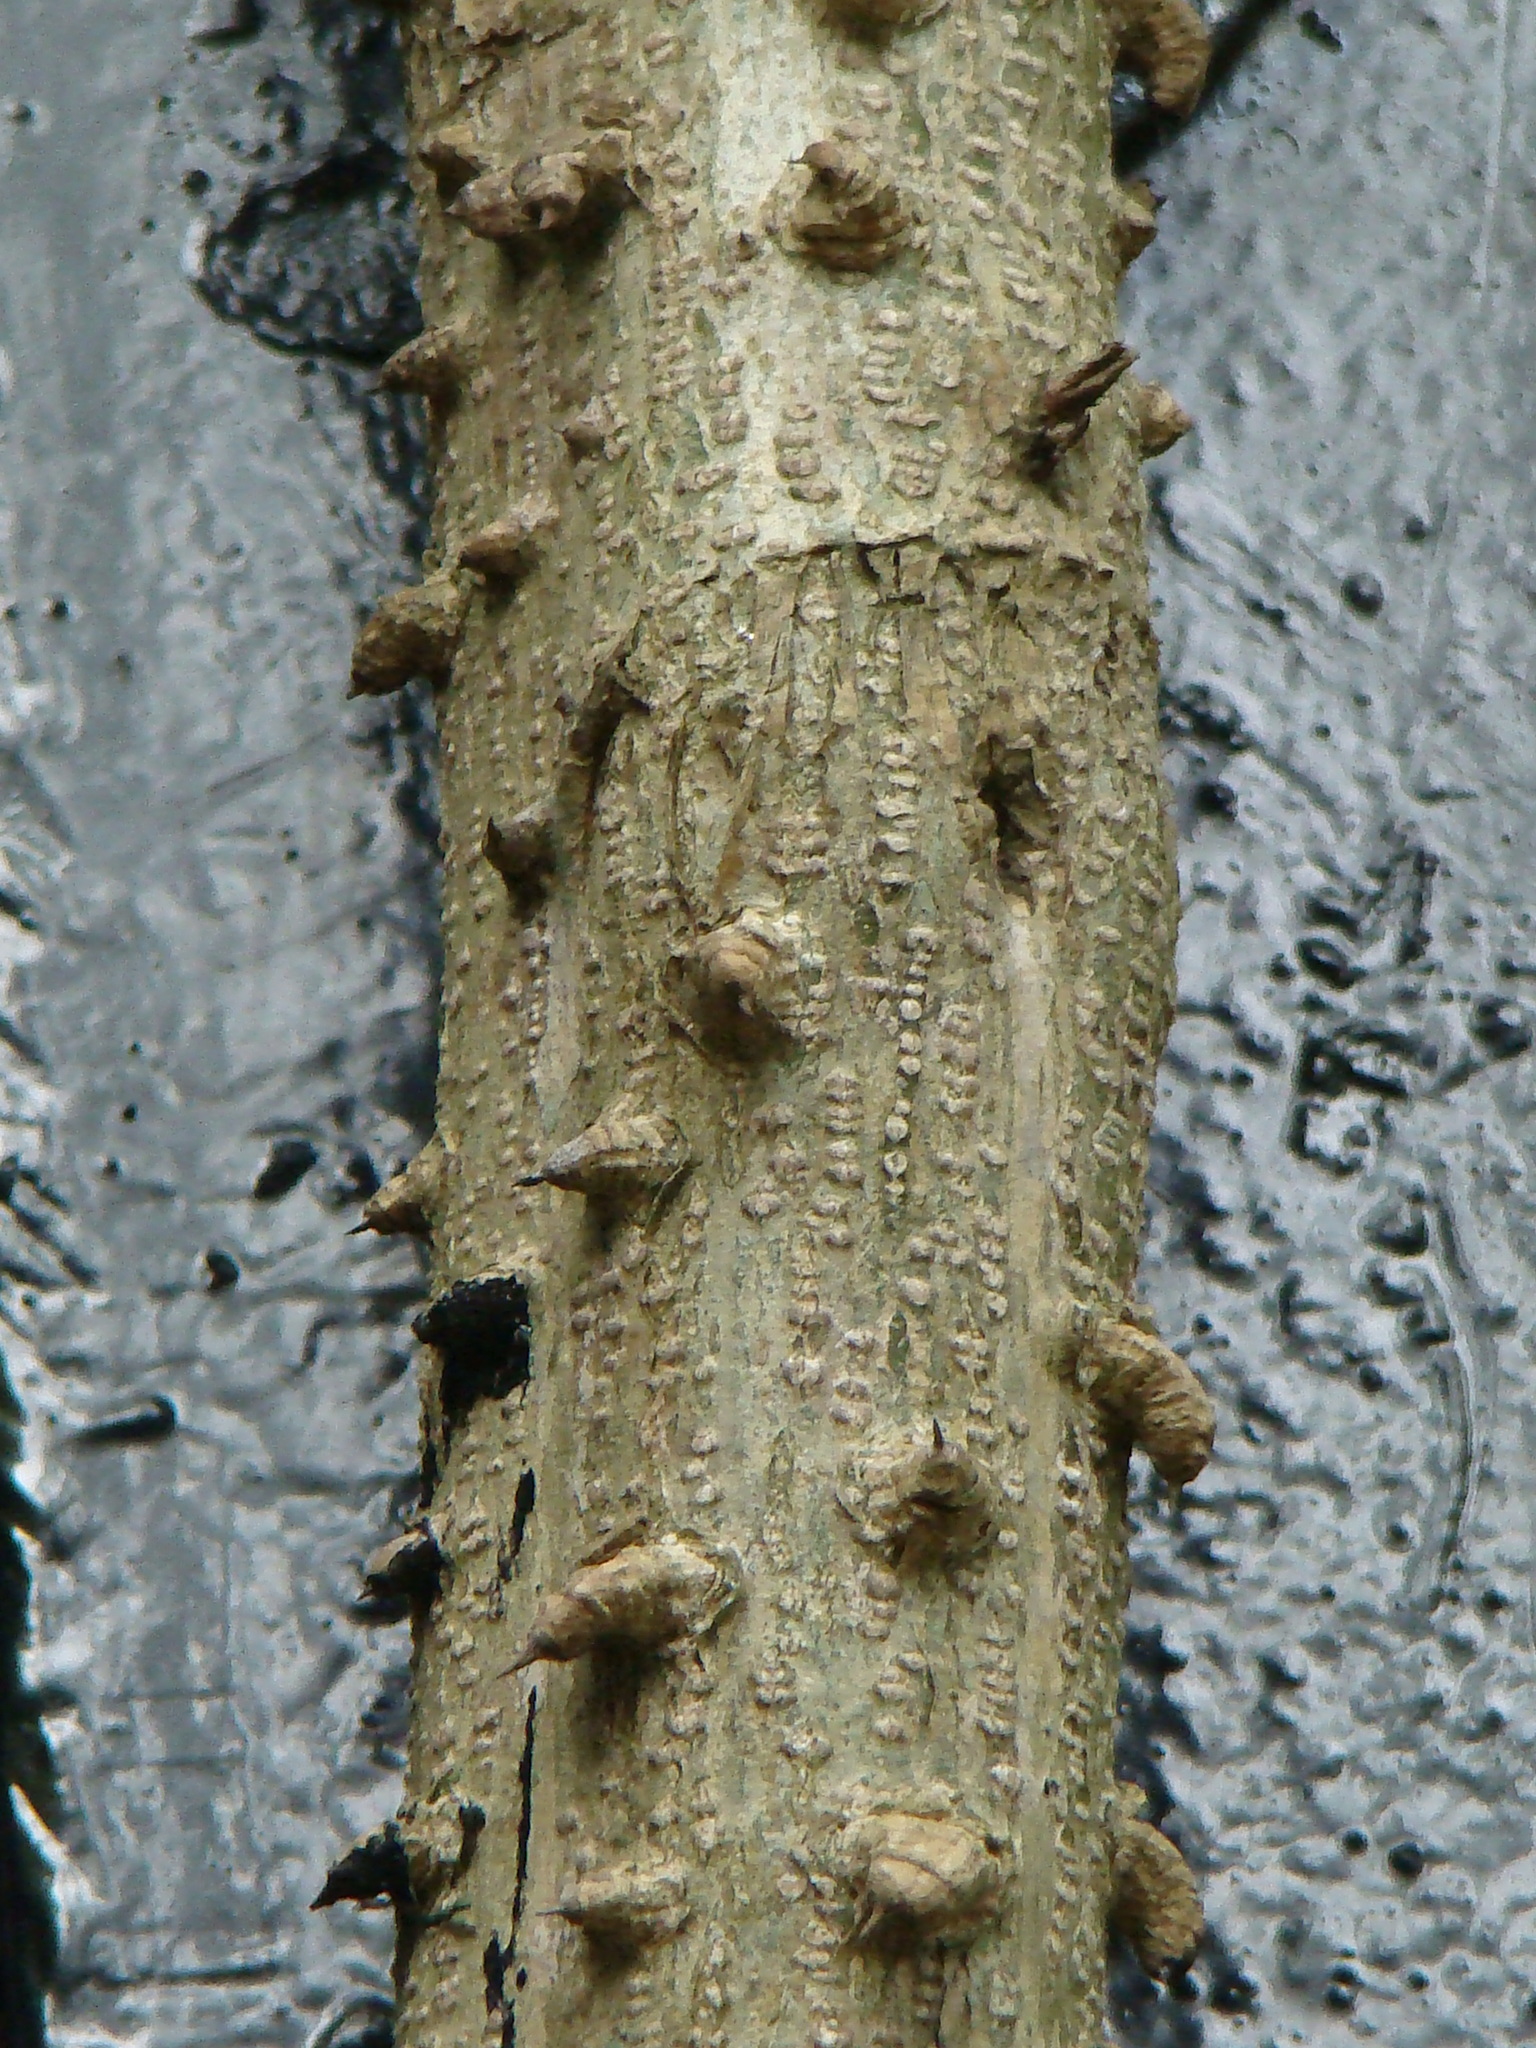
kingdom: Plantae
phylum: Tracheophyta
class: Magnoliopsida
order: Fabales
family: Fabaceae
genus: Guilandina
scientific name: Guilandina minax
